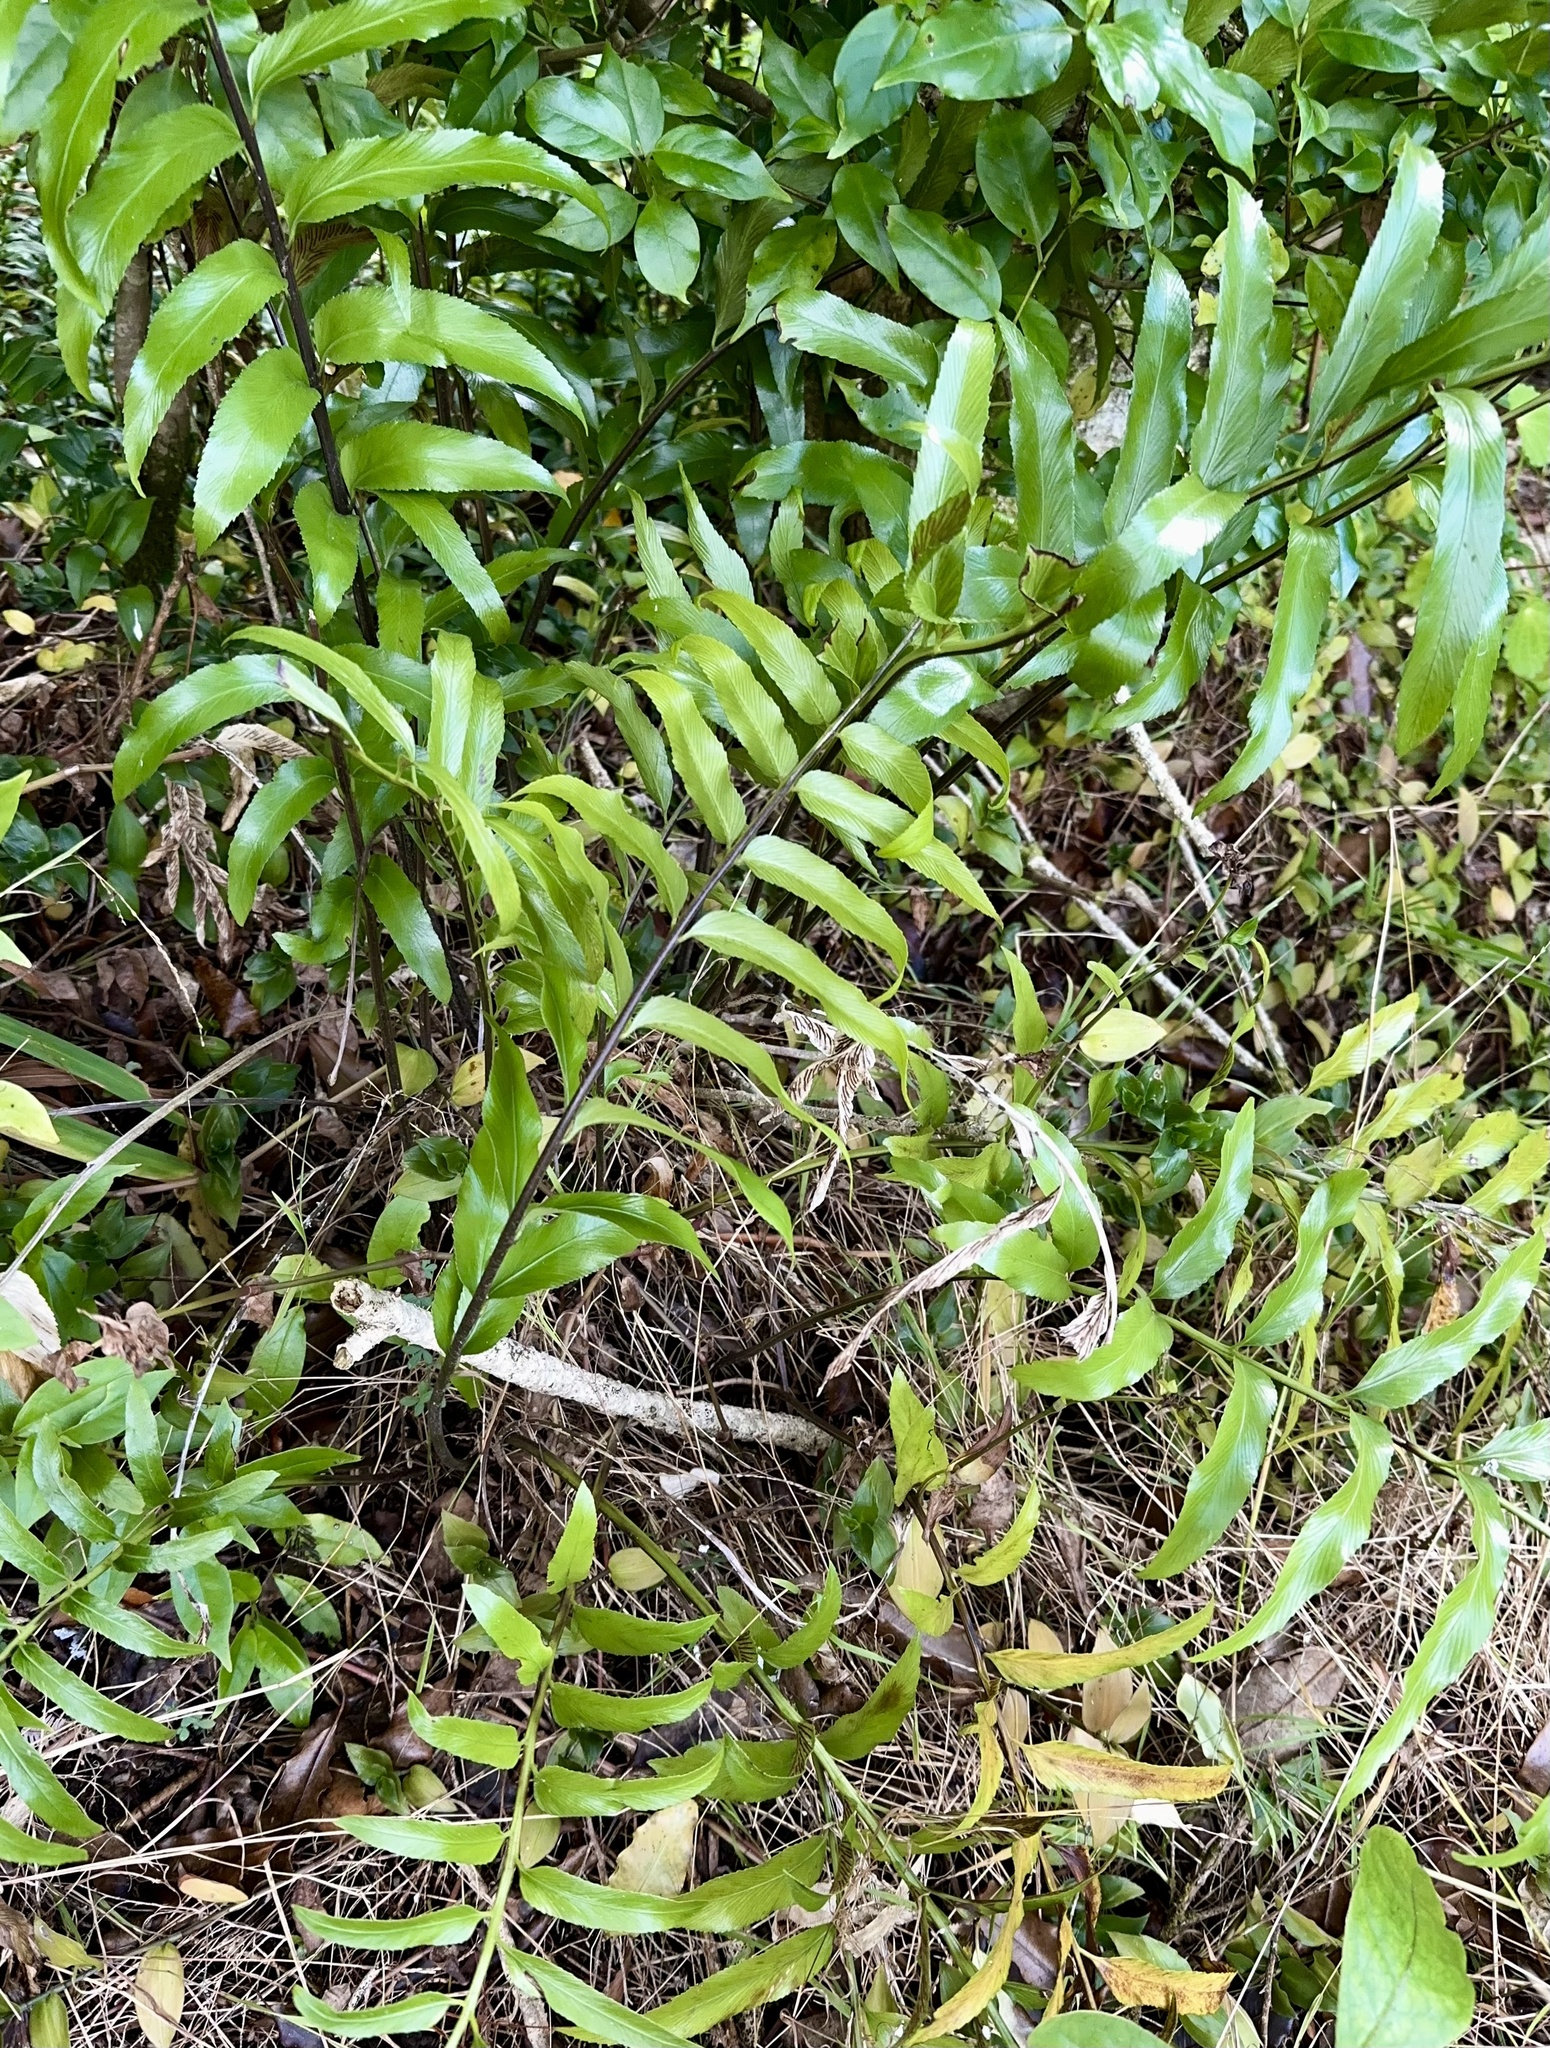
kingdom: Plantae
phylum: Tracheophyta
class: Polypodiopsida
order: Polypodiales
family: Aspleniaceae
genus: Asplenium
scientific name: Asplenium oblongifolium
